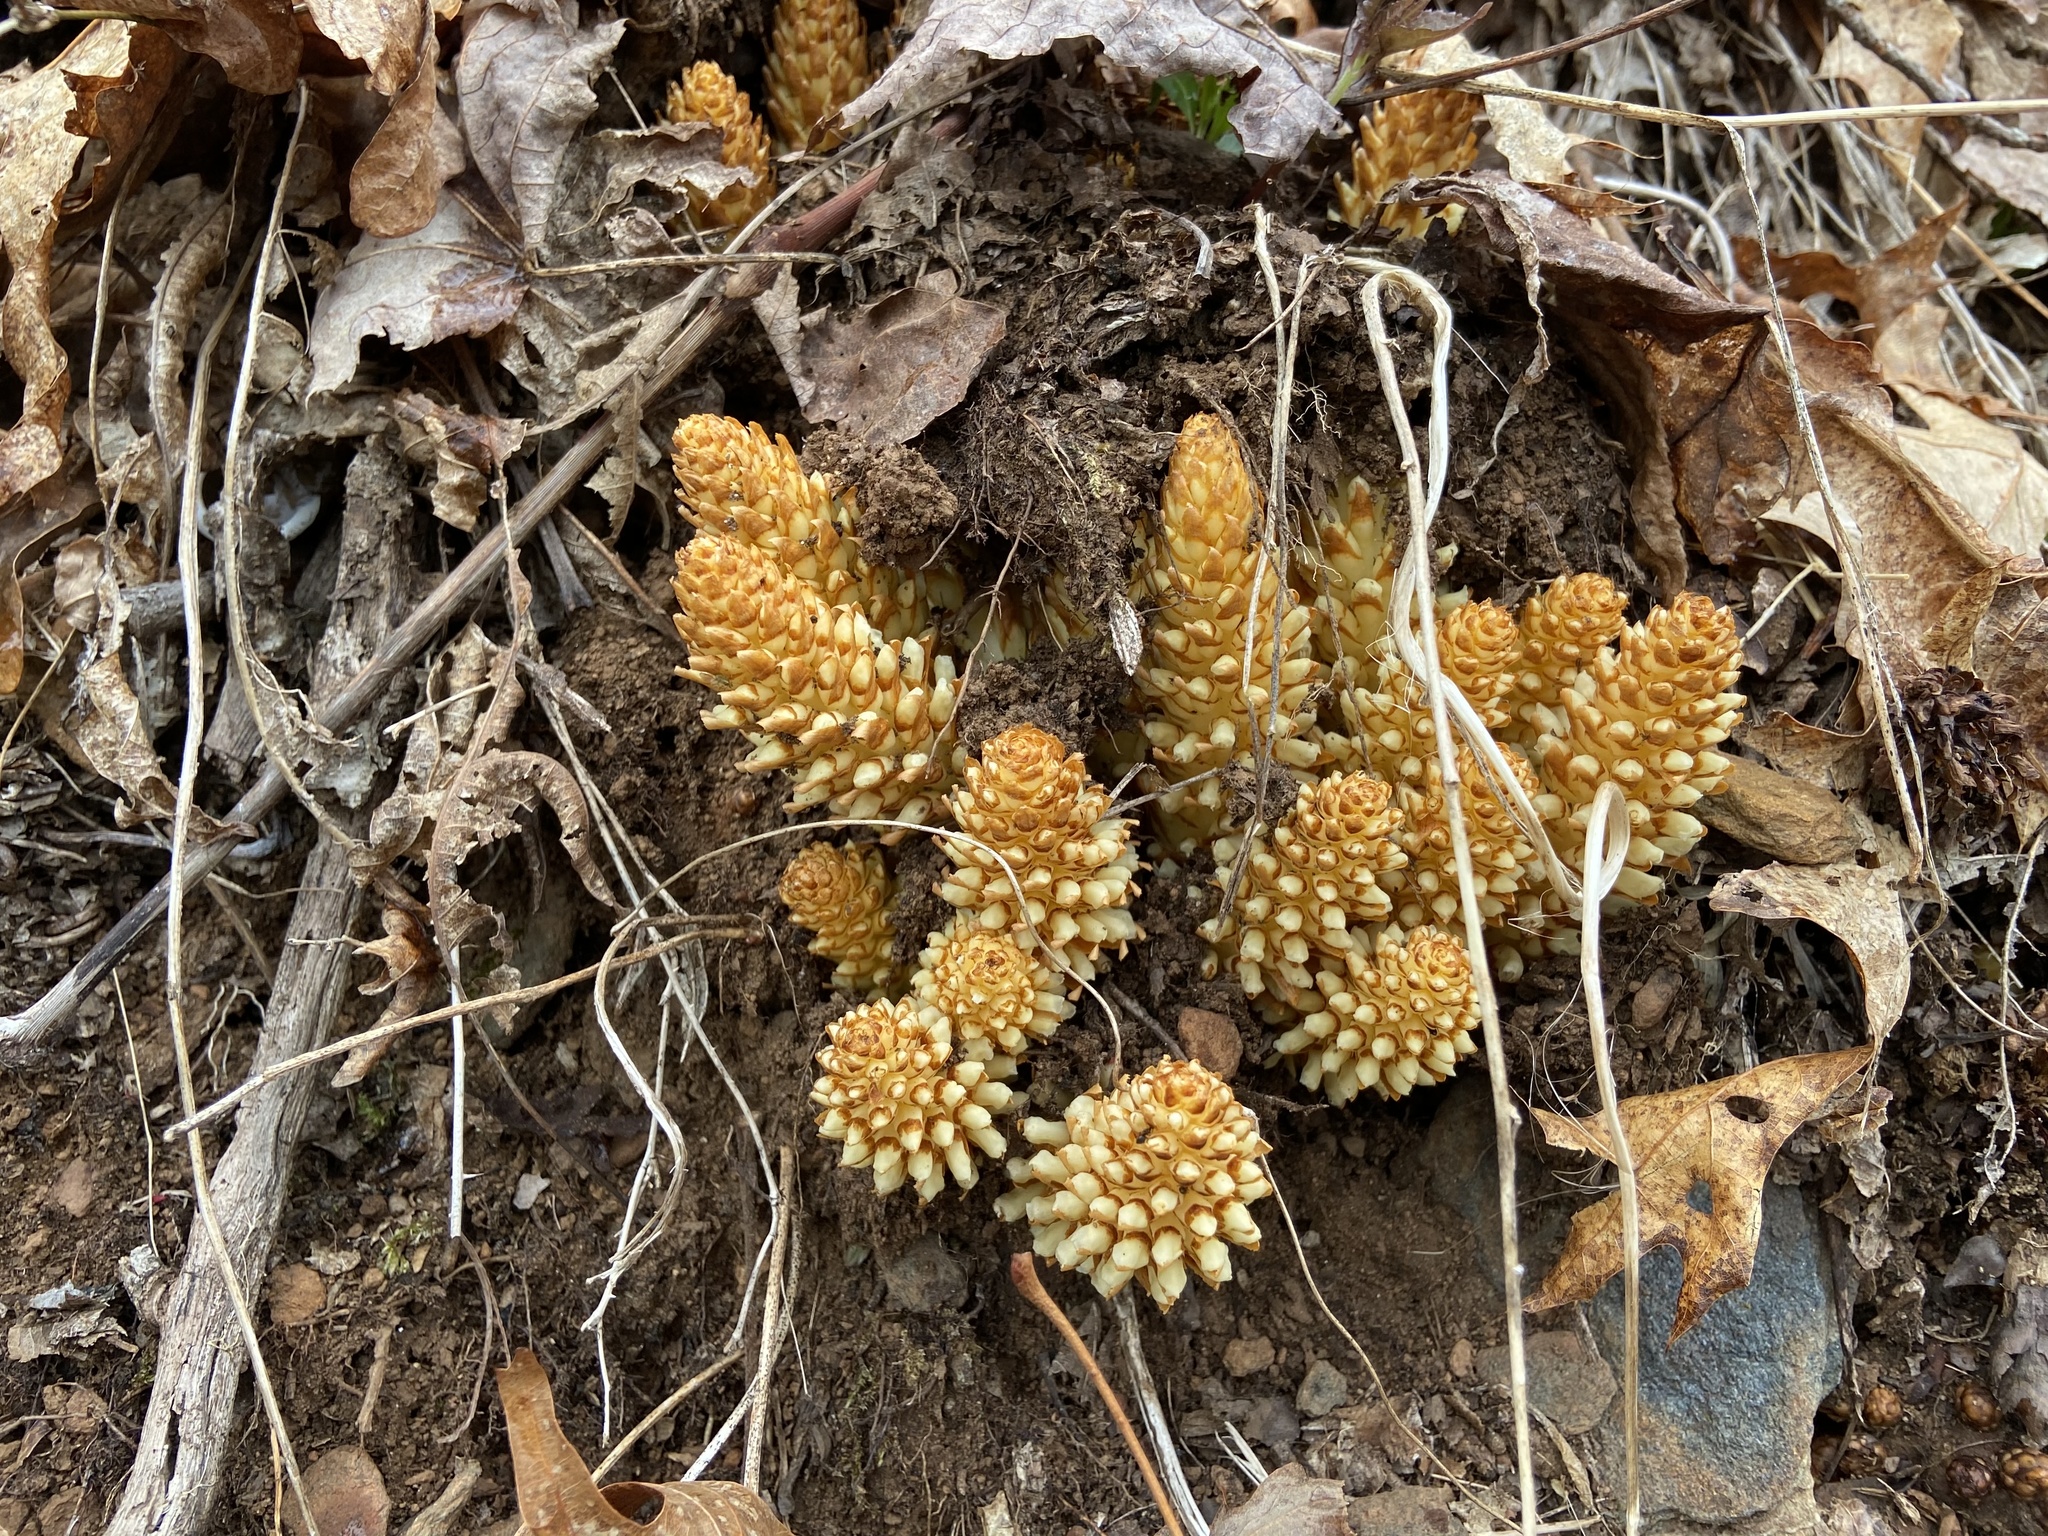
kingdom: Plantae
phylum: Tracheophyta
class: Magnoliopsida
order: Lamiales
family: Orobanchaceae
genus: Conopholis
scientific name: Conopholis americana
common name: American cancer-root
